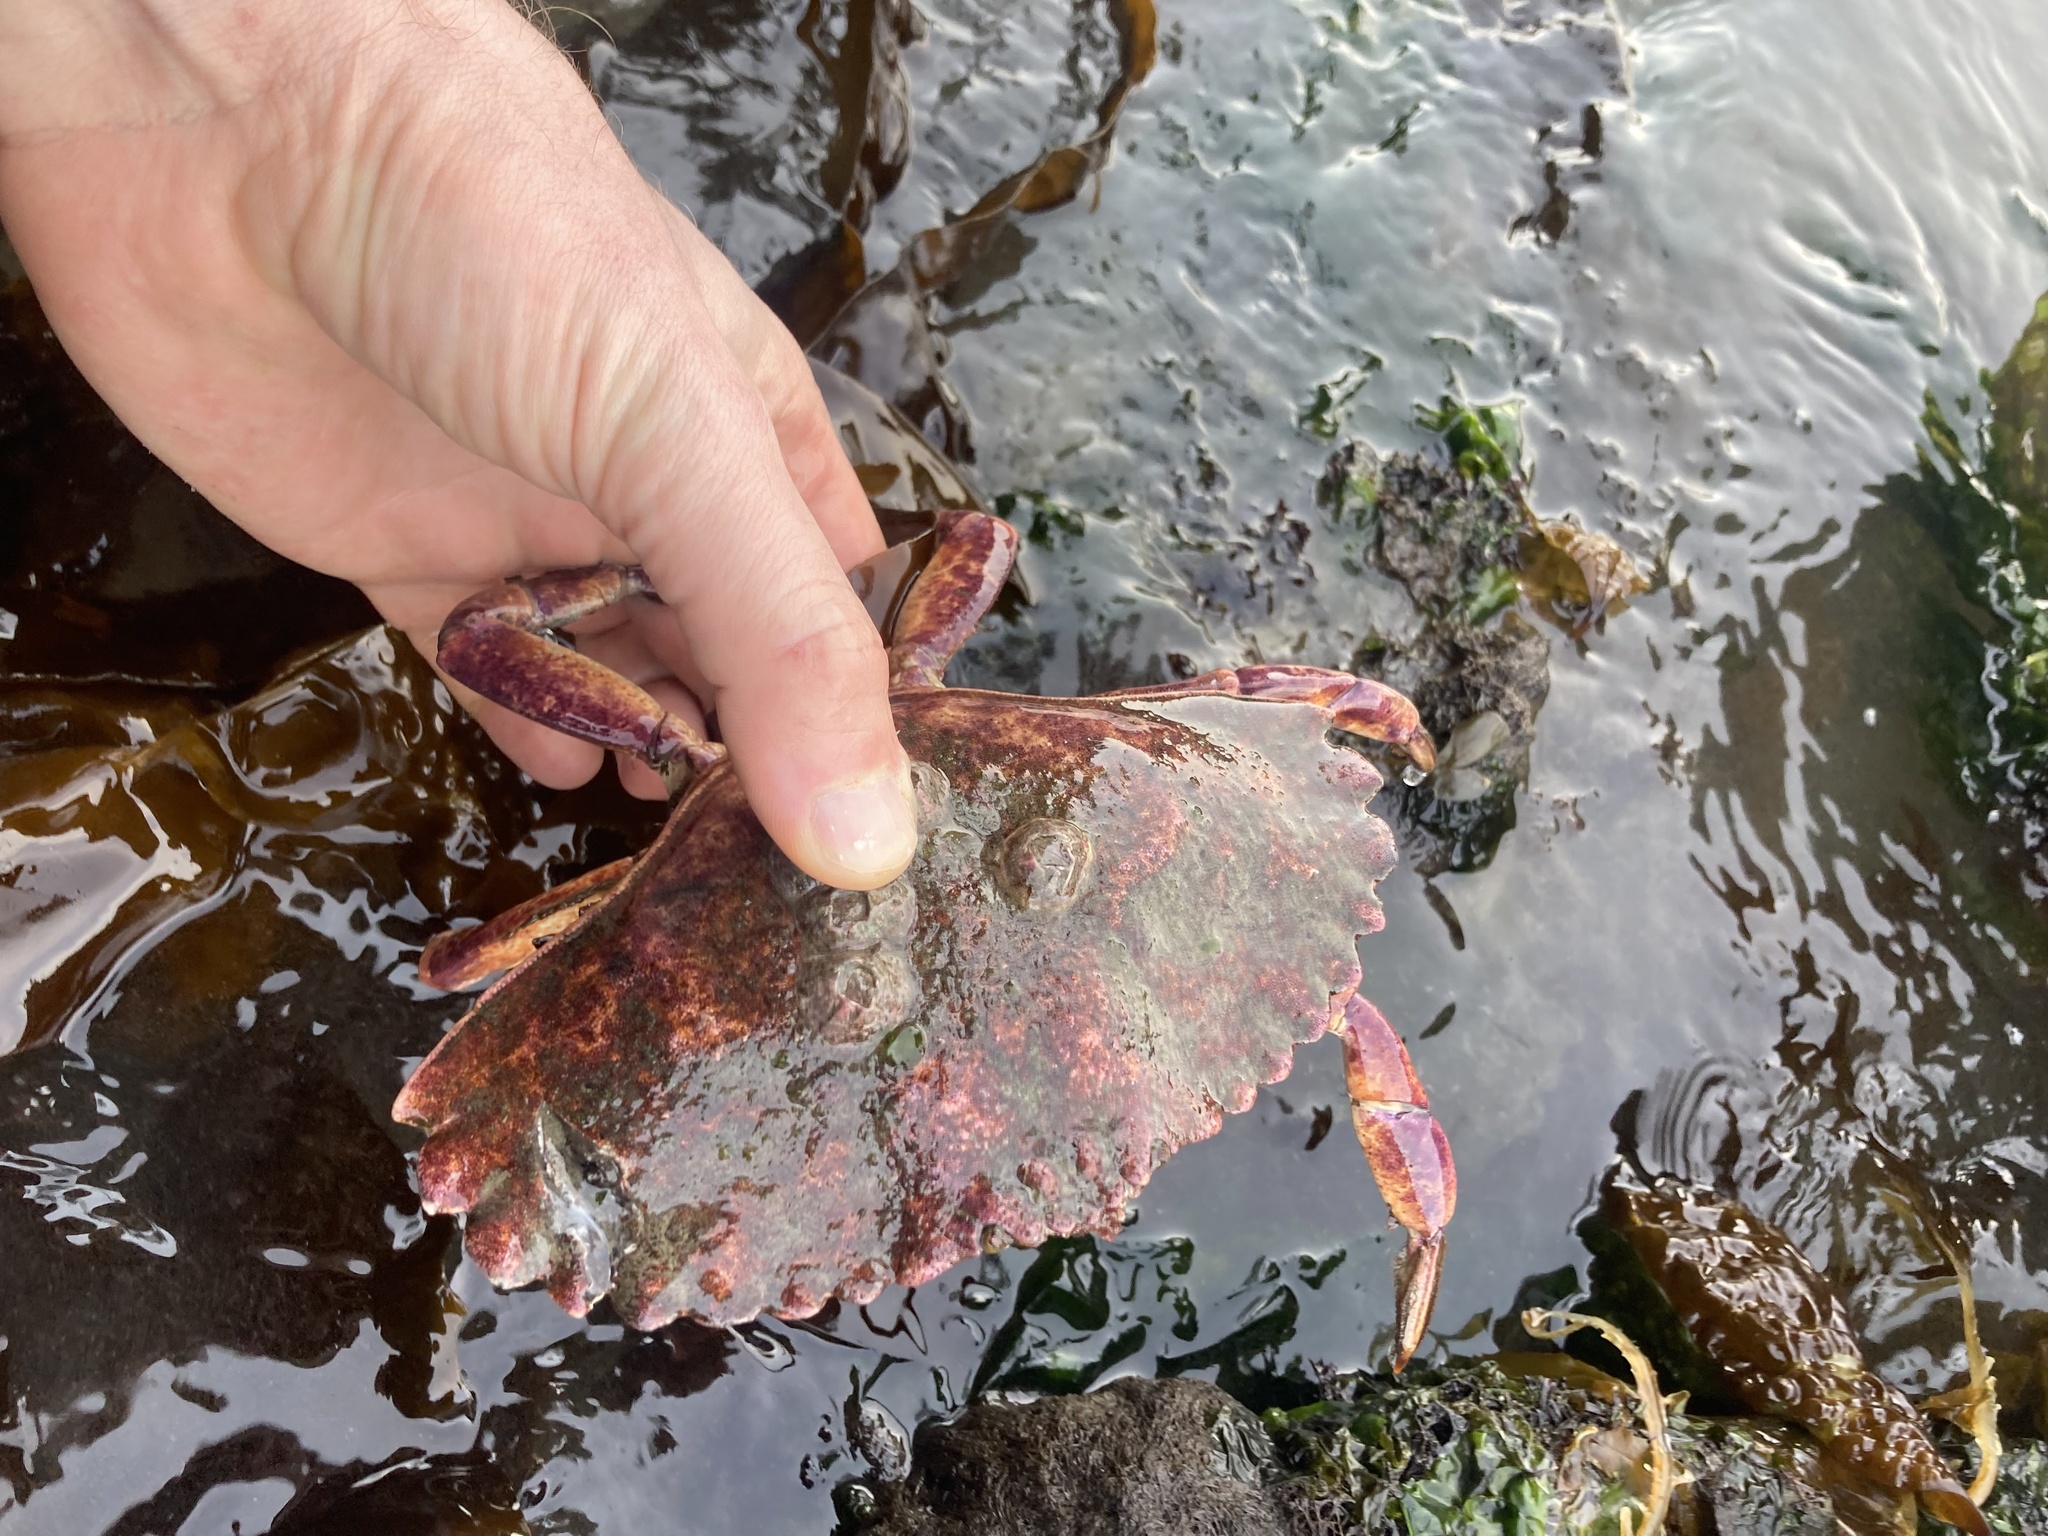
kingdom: Animalia
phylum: Arthropoda
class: Malacostraca
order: Decapoda
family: Cancridae
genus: Cancer
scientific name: Cancer productus
